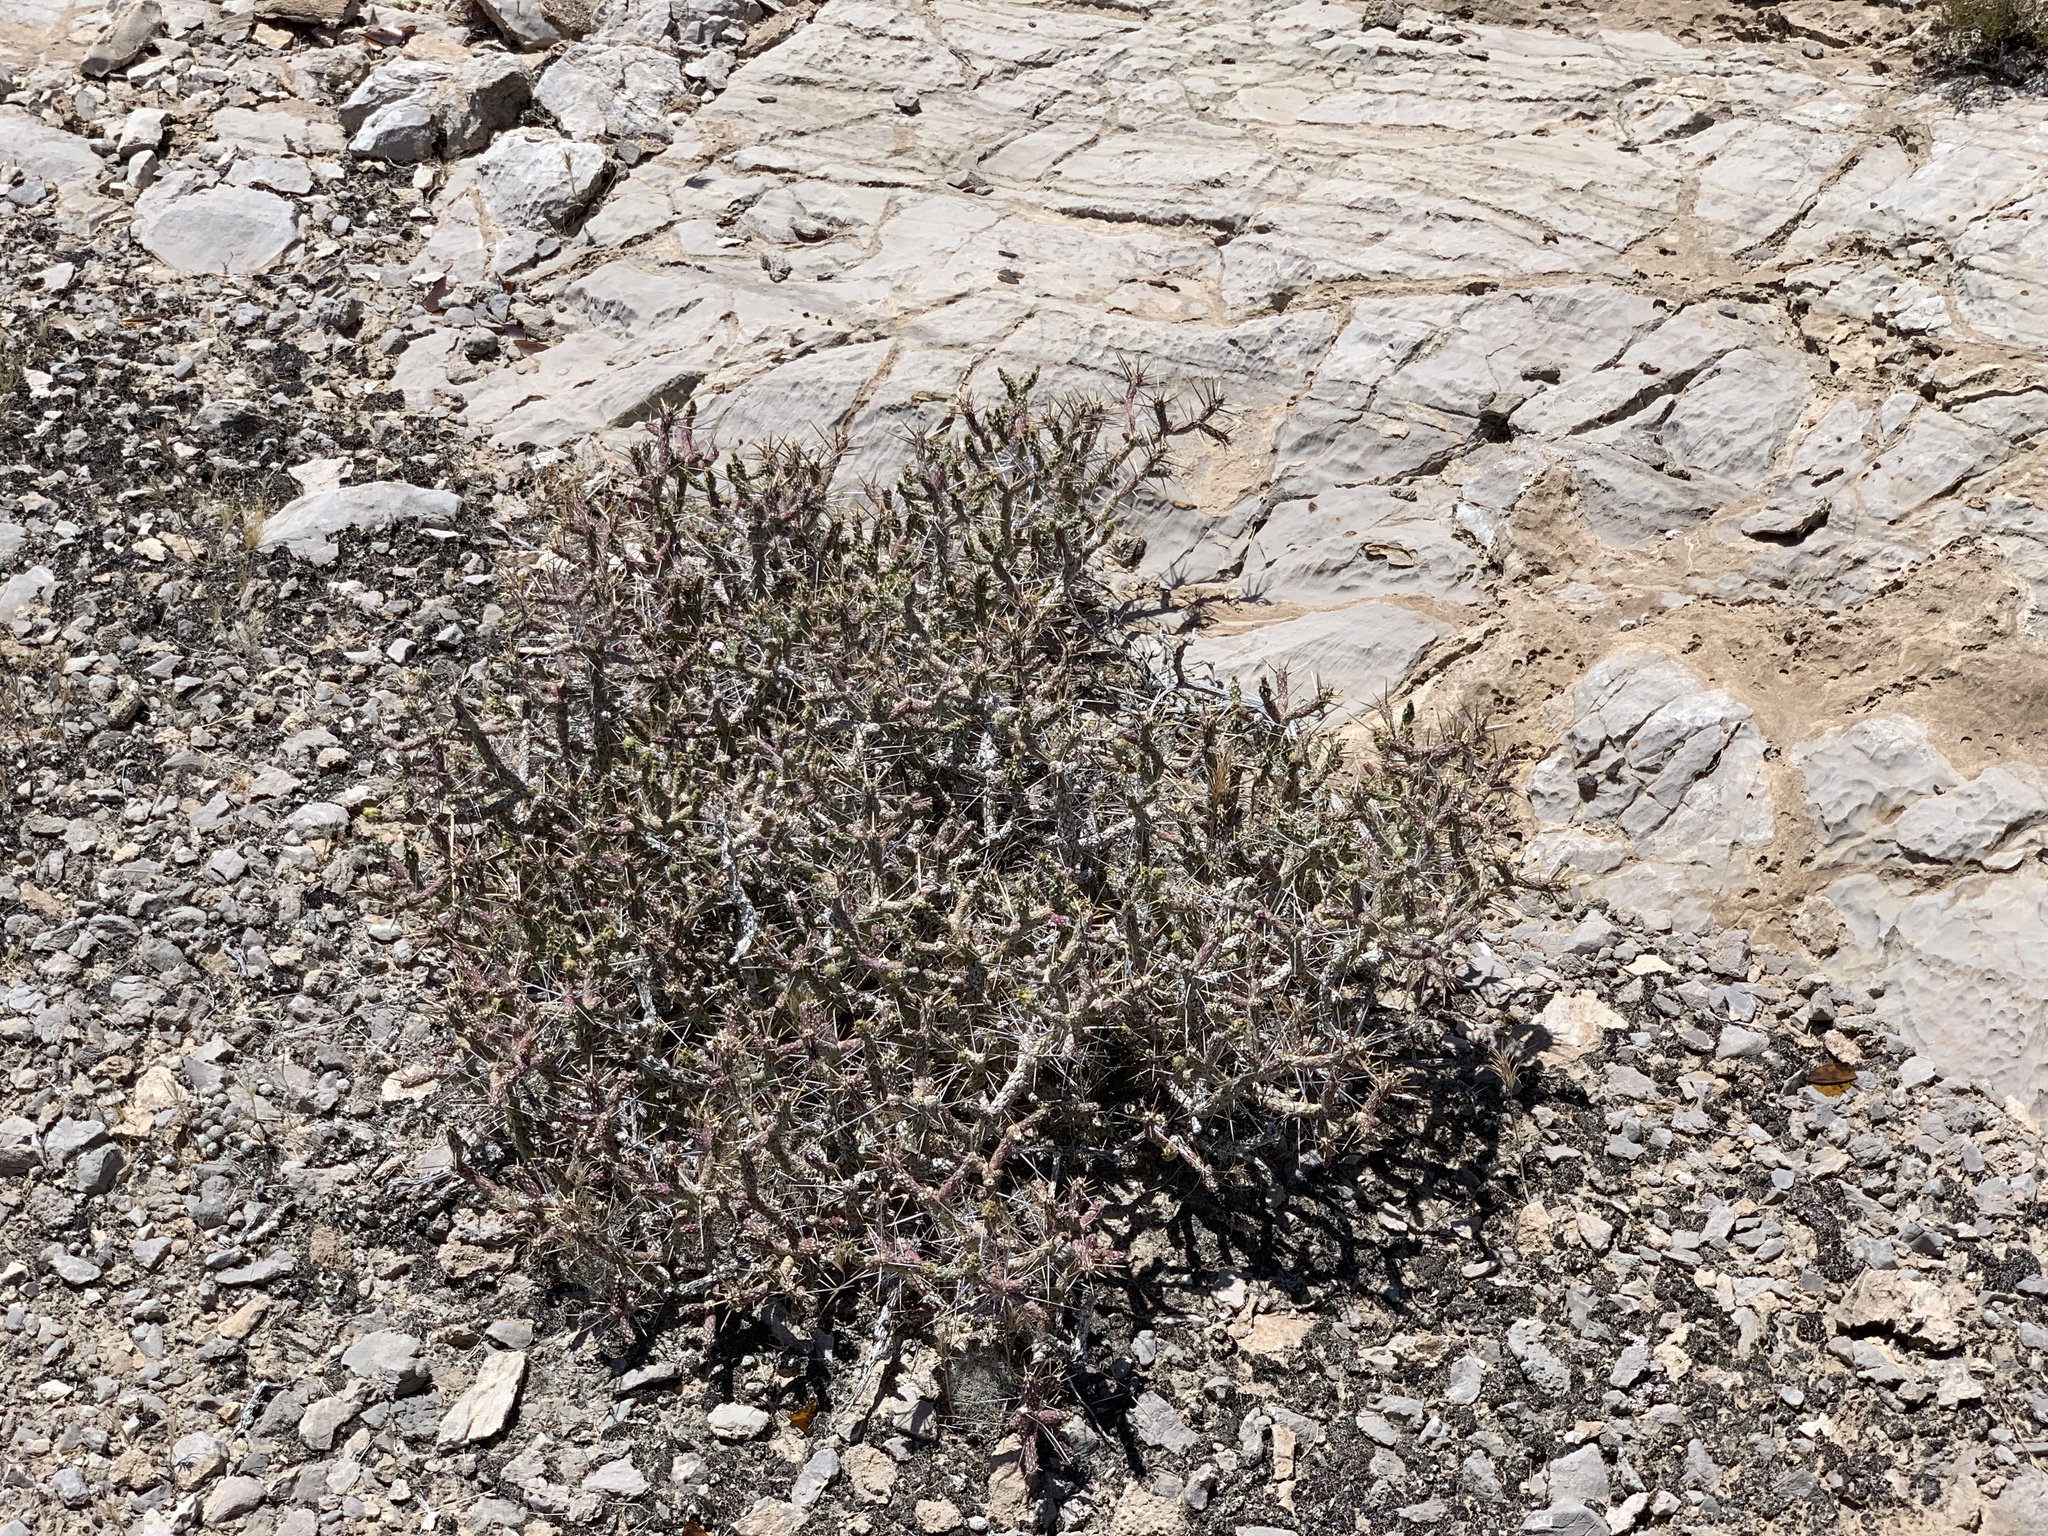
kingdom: Plantae
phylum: Tracheophyta
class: Magnoliopsida
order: Caryophyllales
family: Cactaceae
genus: Cylindropuntia
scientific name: Cylindropuntia ramosissima
